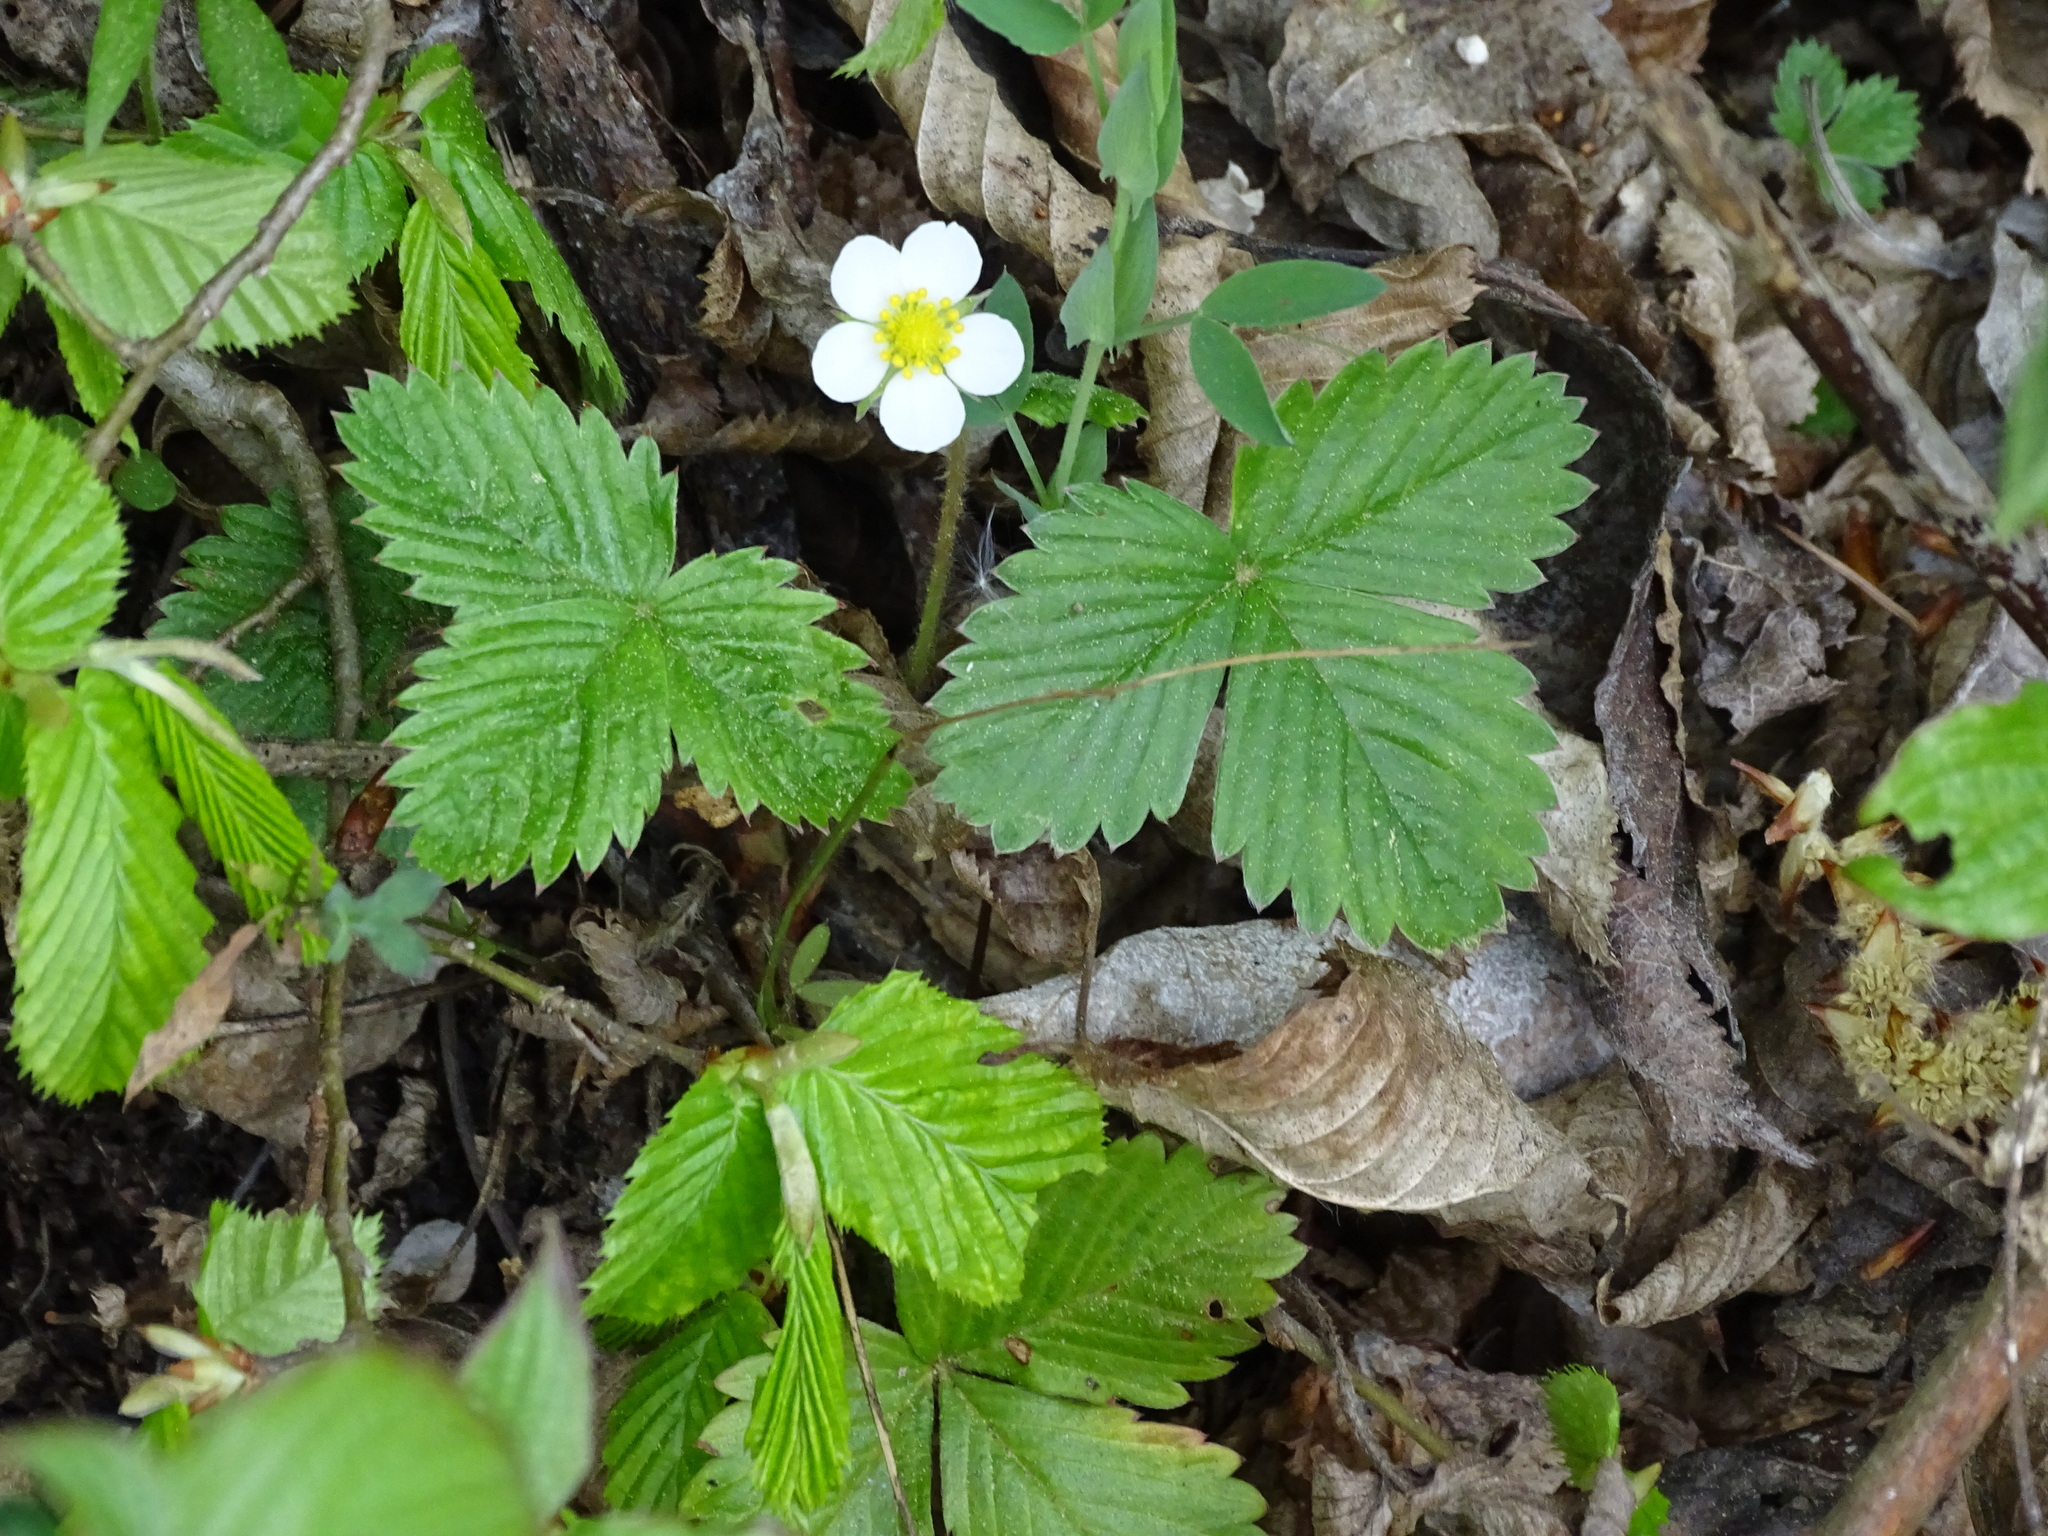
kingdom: Plantae
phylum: Tracheophyta
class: Magnoliopsida
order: Rosales
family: Rosaceae
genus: Fragaria
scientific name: Fragaria vesca
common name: Wild strawberry
